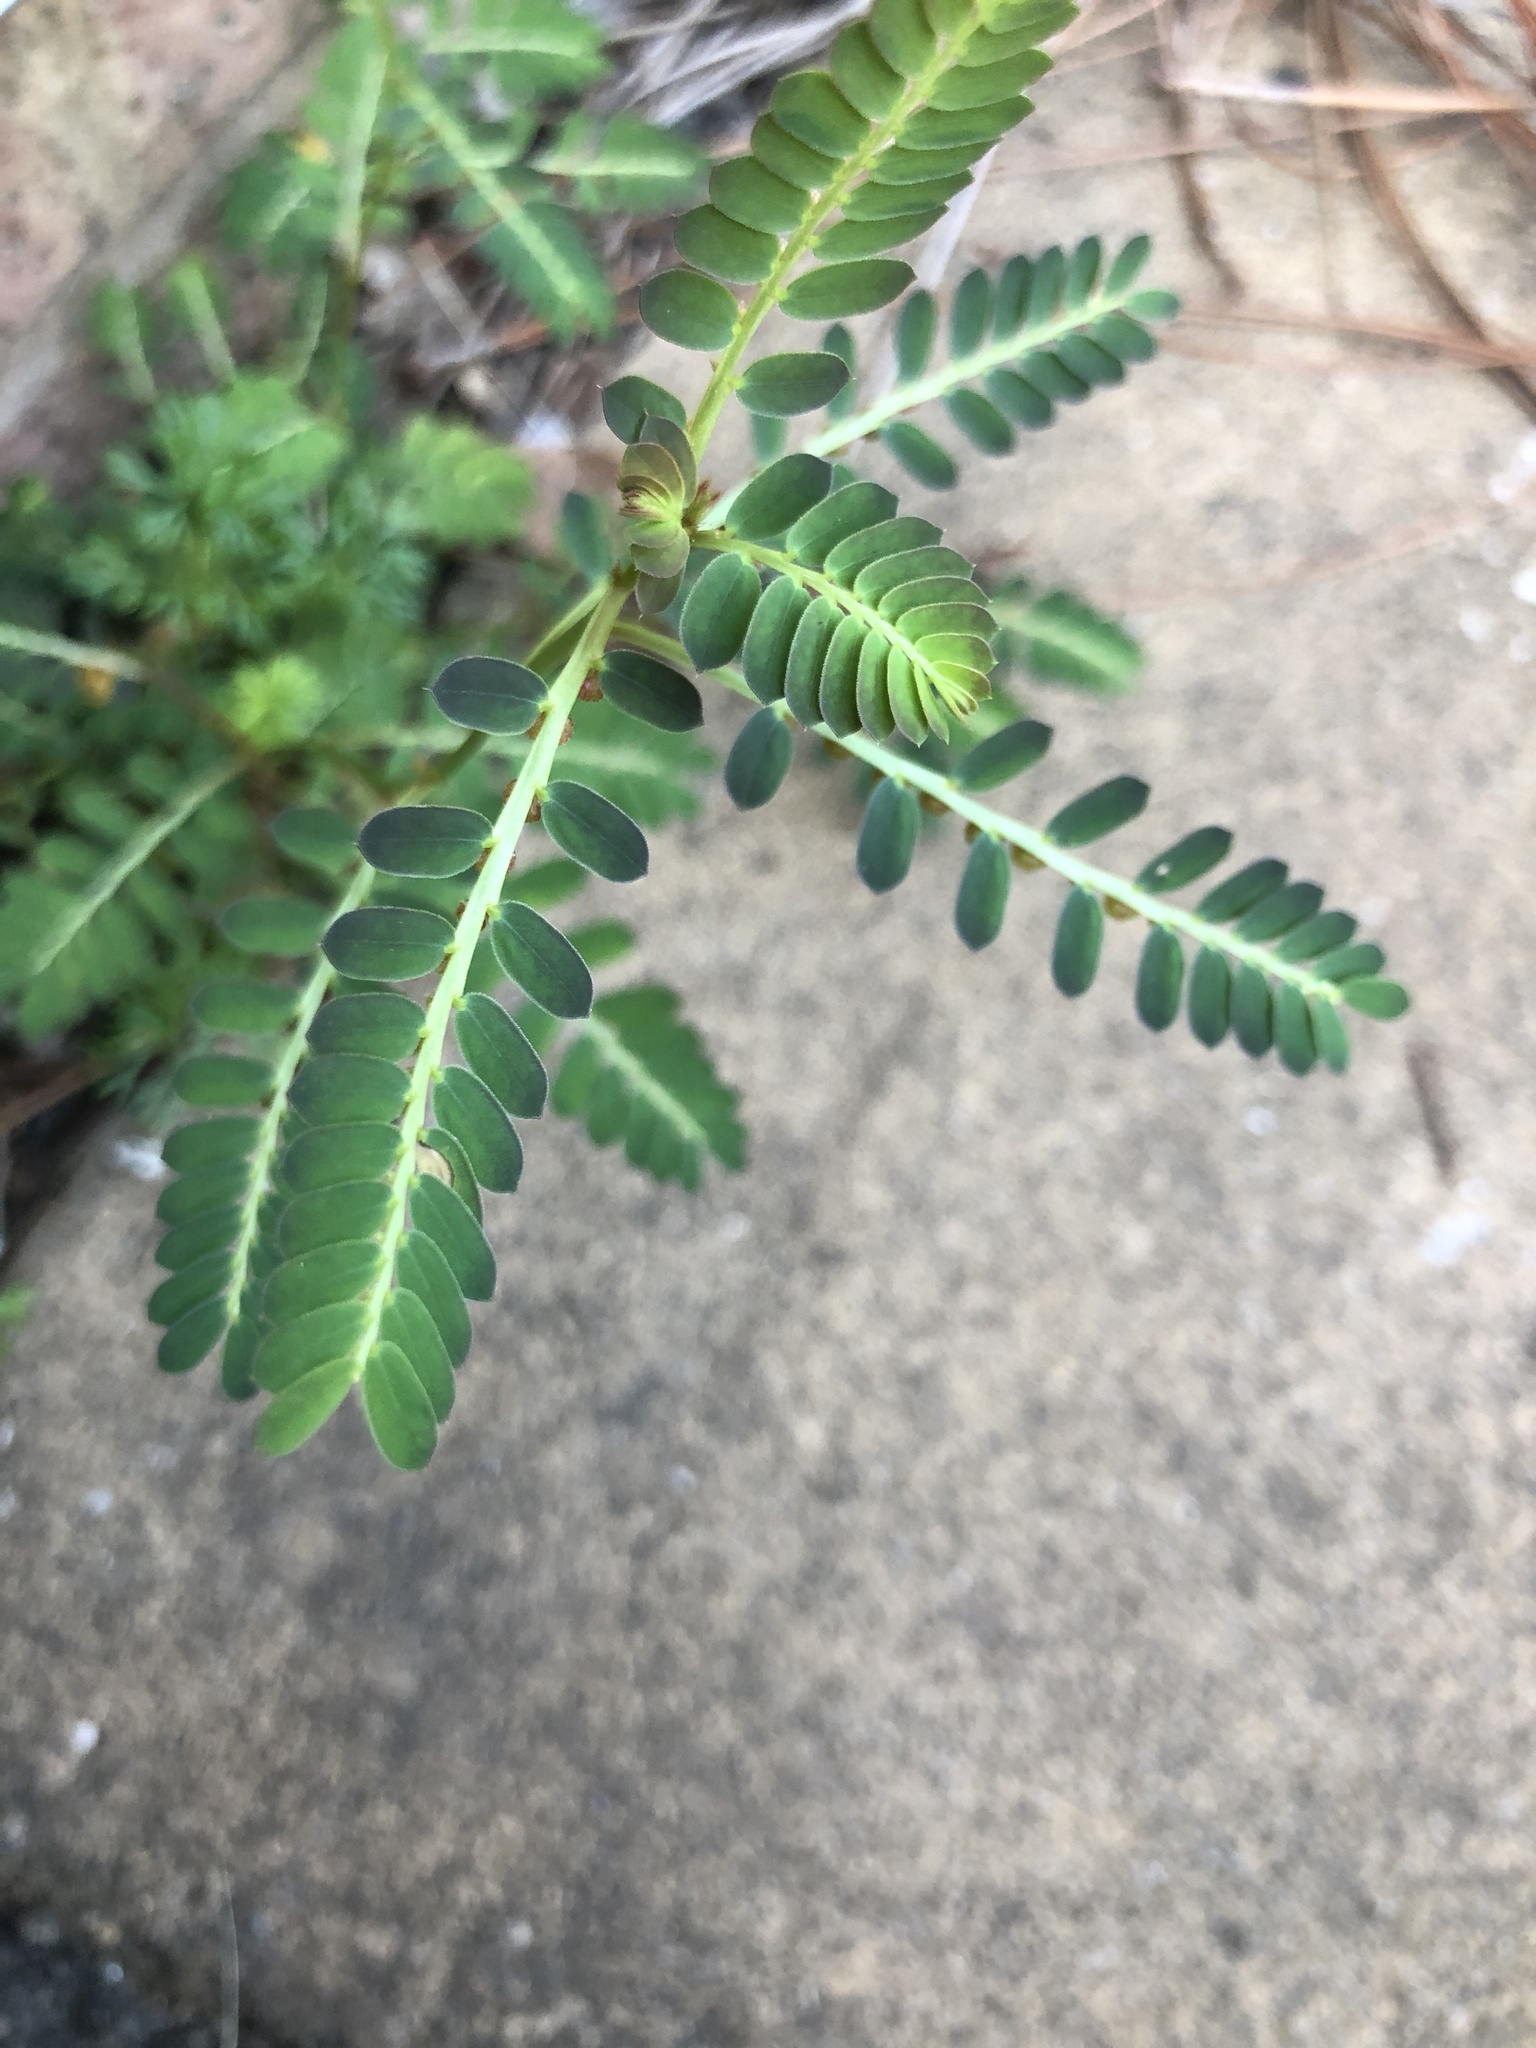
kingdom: Plantae
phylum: Tracheophyta
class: Magnoliopsida
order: Malpighiales
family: Phyllanthaceae
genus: Phyllanthus
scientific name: Phyllanthus urinaria
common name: Chamber bitter
